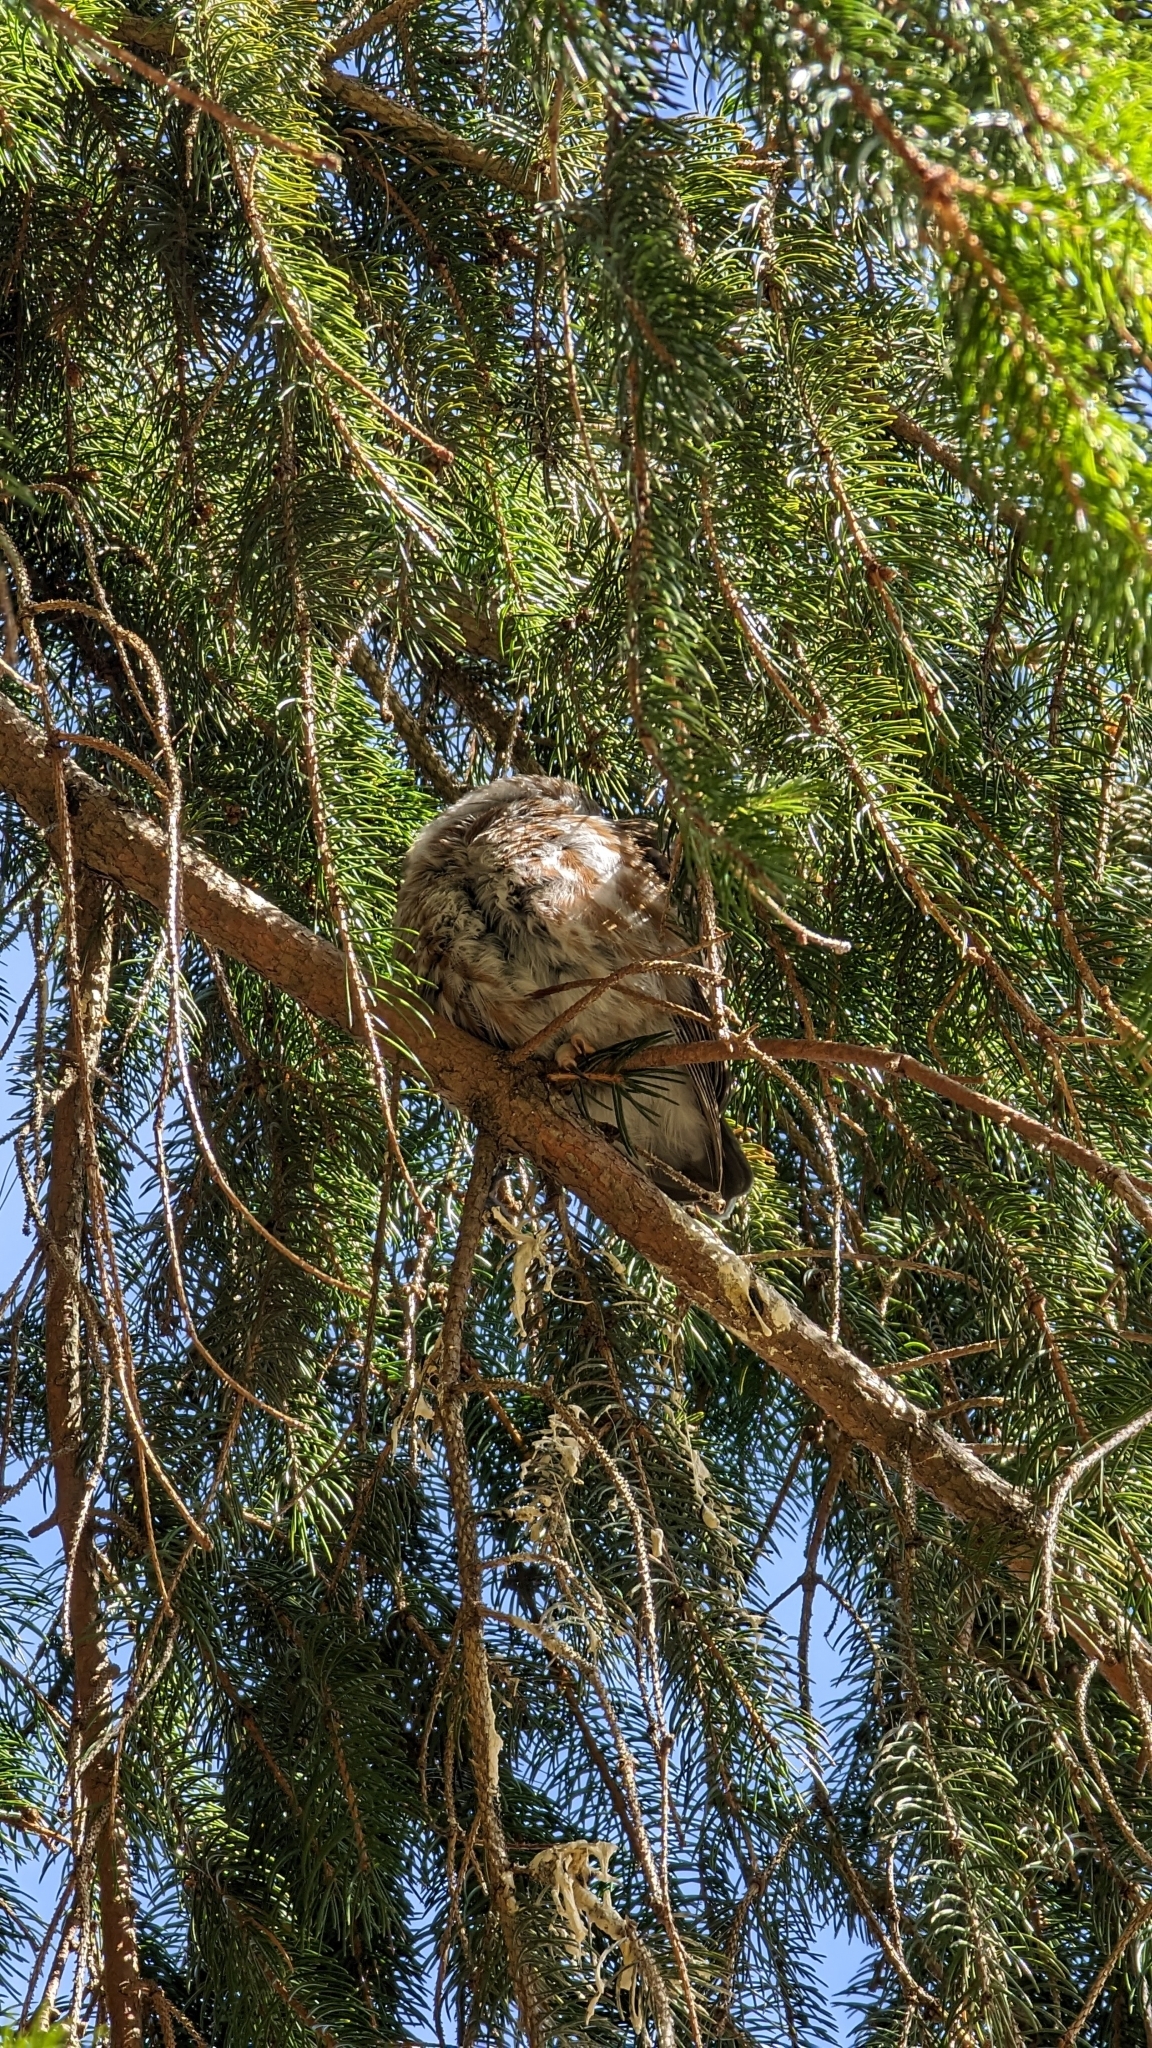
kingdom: Animalia
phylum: Chordata
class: Aves
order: Strigiformes
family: Strigidae
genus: Aegolius
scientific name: Aegolius acadicus
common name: Northern saw-whet owl
